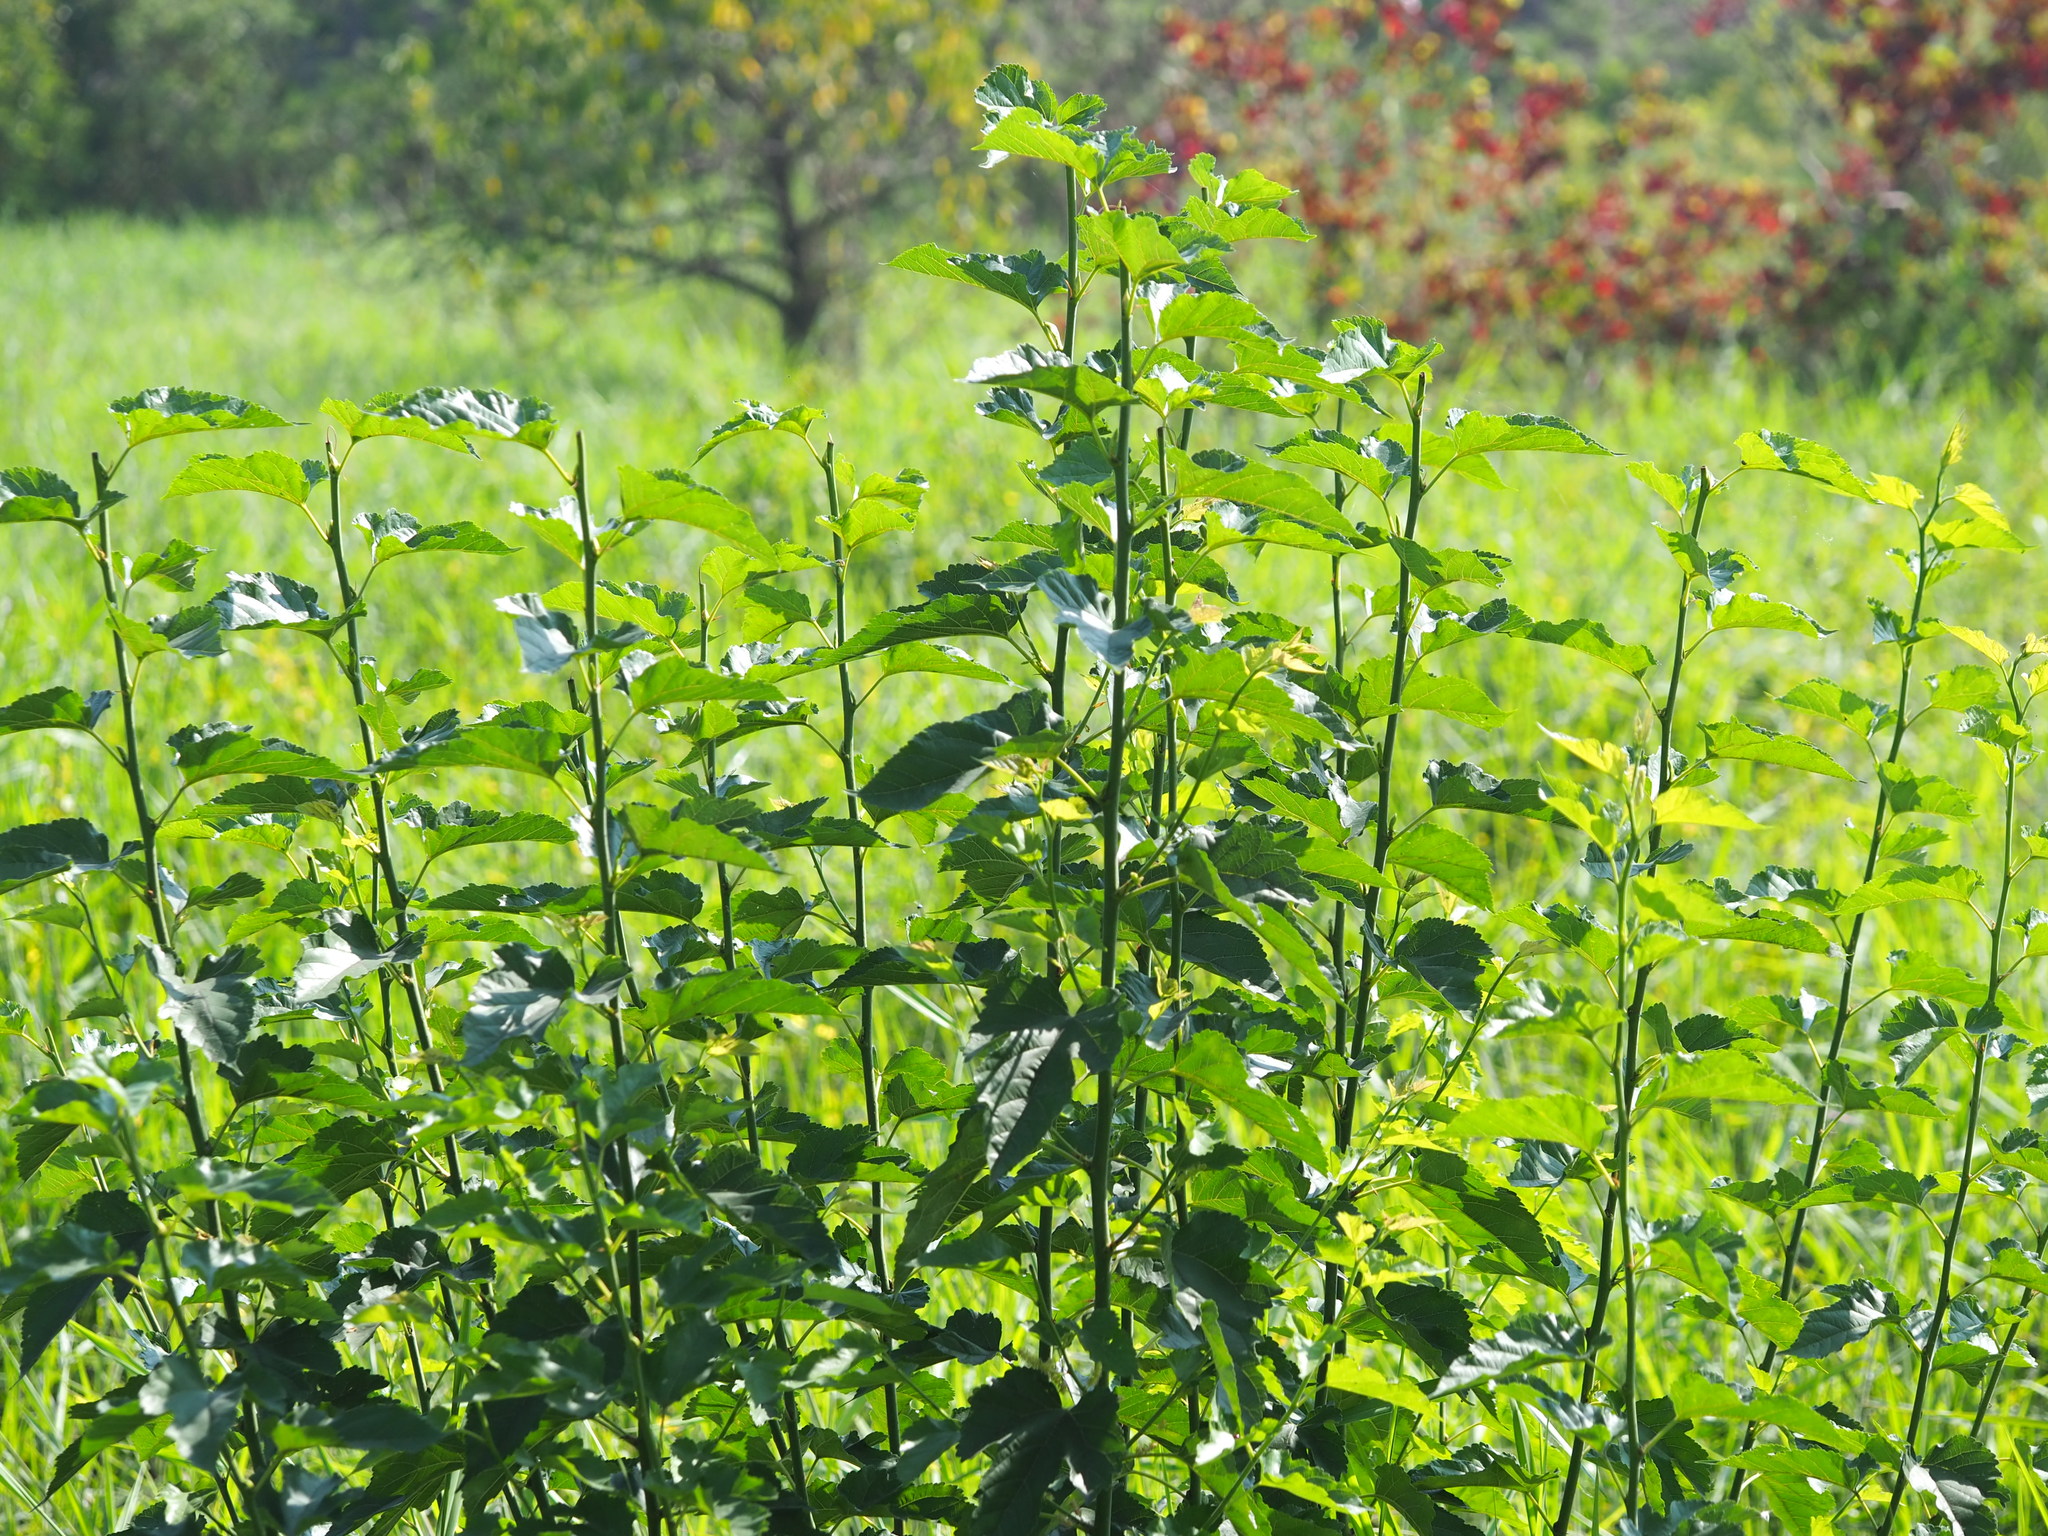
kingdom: Plantae
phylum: Tracheophyta
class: Magnoliopsida
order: Rosales
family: Moraceae
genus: Morus
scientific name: Morus indica
